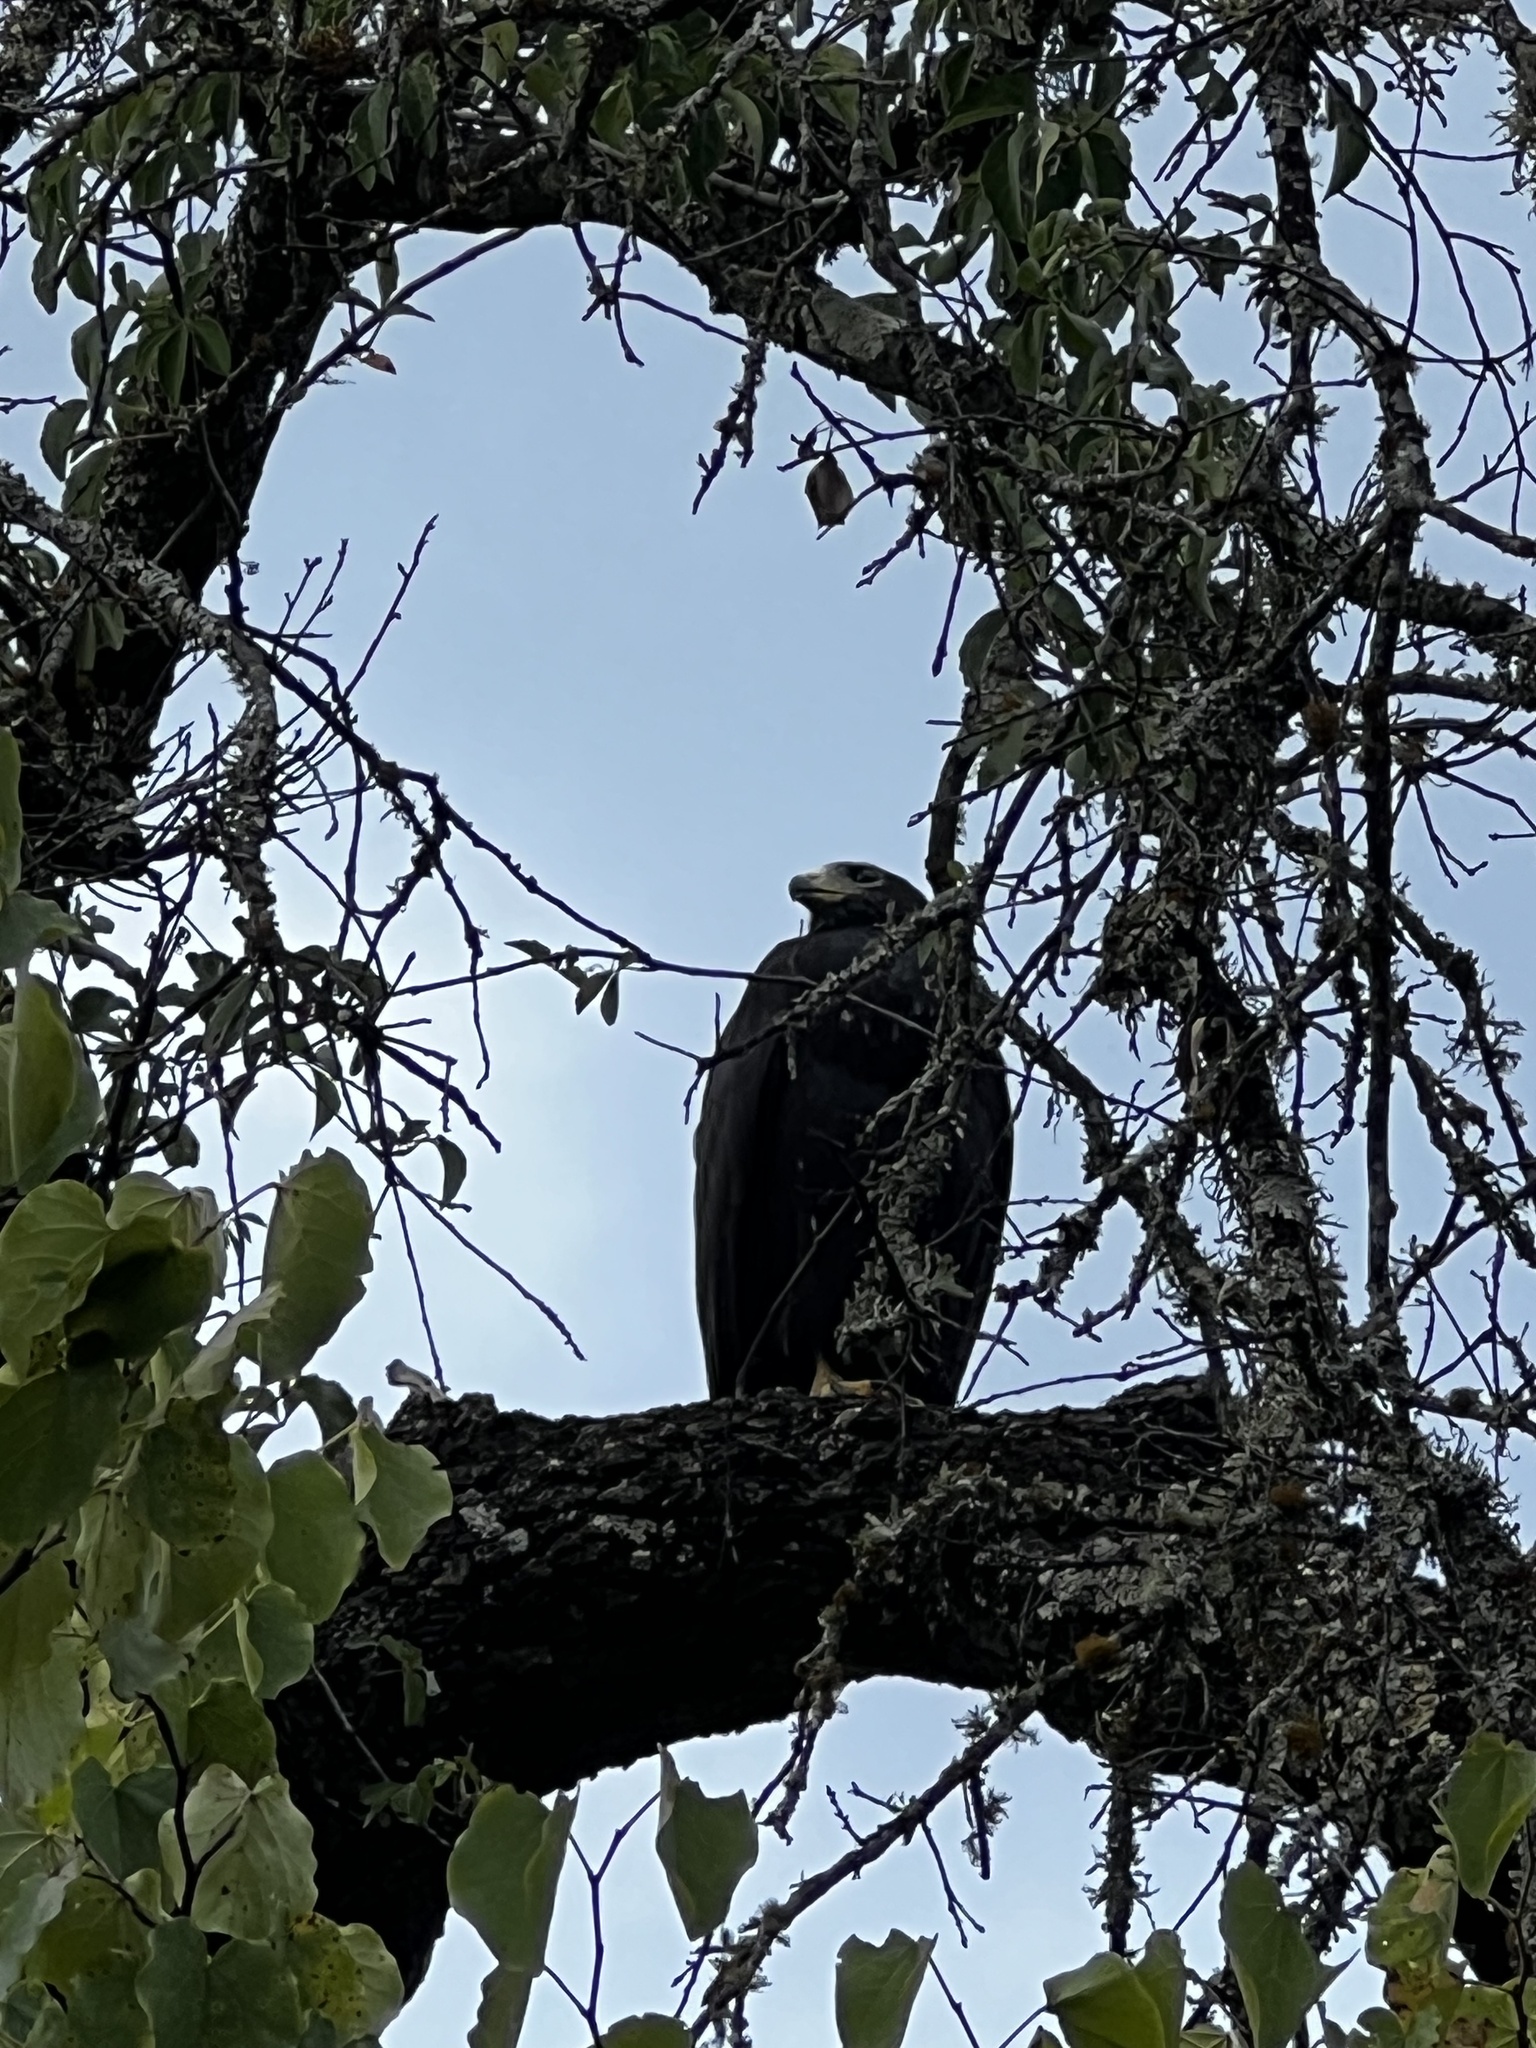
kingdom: Animalia
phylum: Chordata
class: Aves
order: Accipitriformes
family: Accipitridae
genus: Buteo
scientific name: Buteo albonotatus
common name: Zone-tailed hawk
